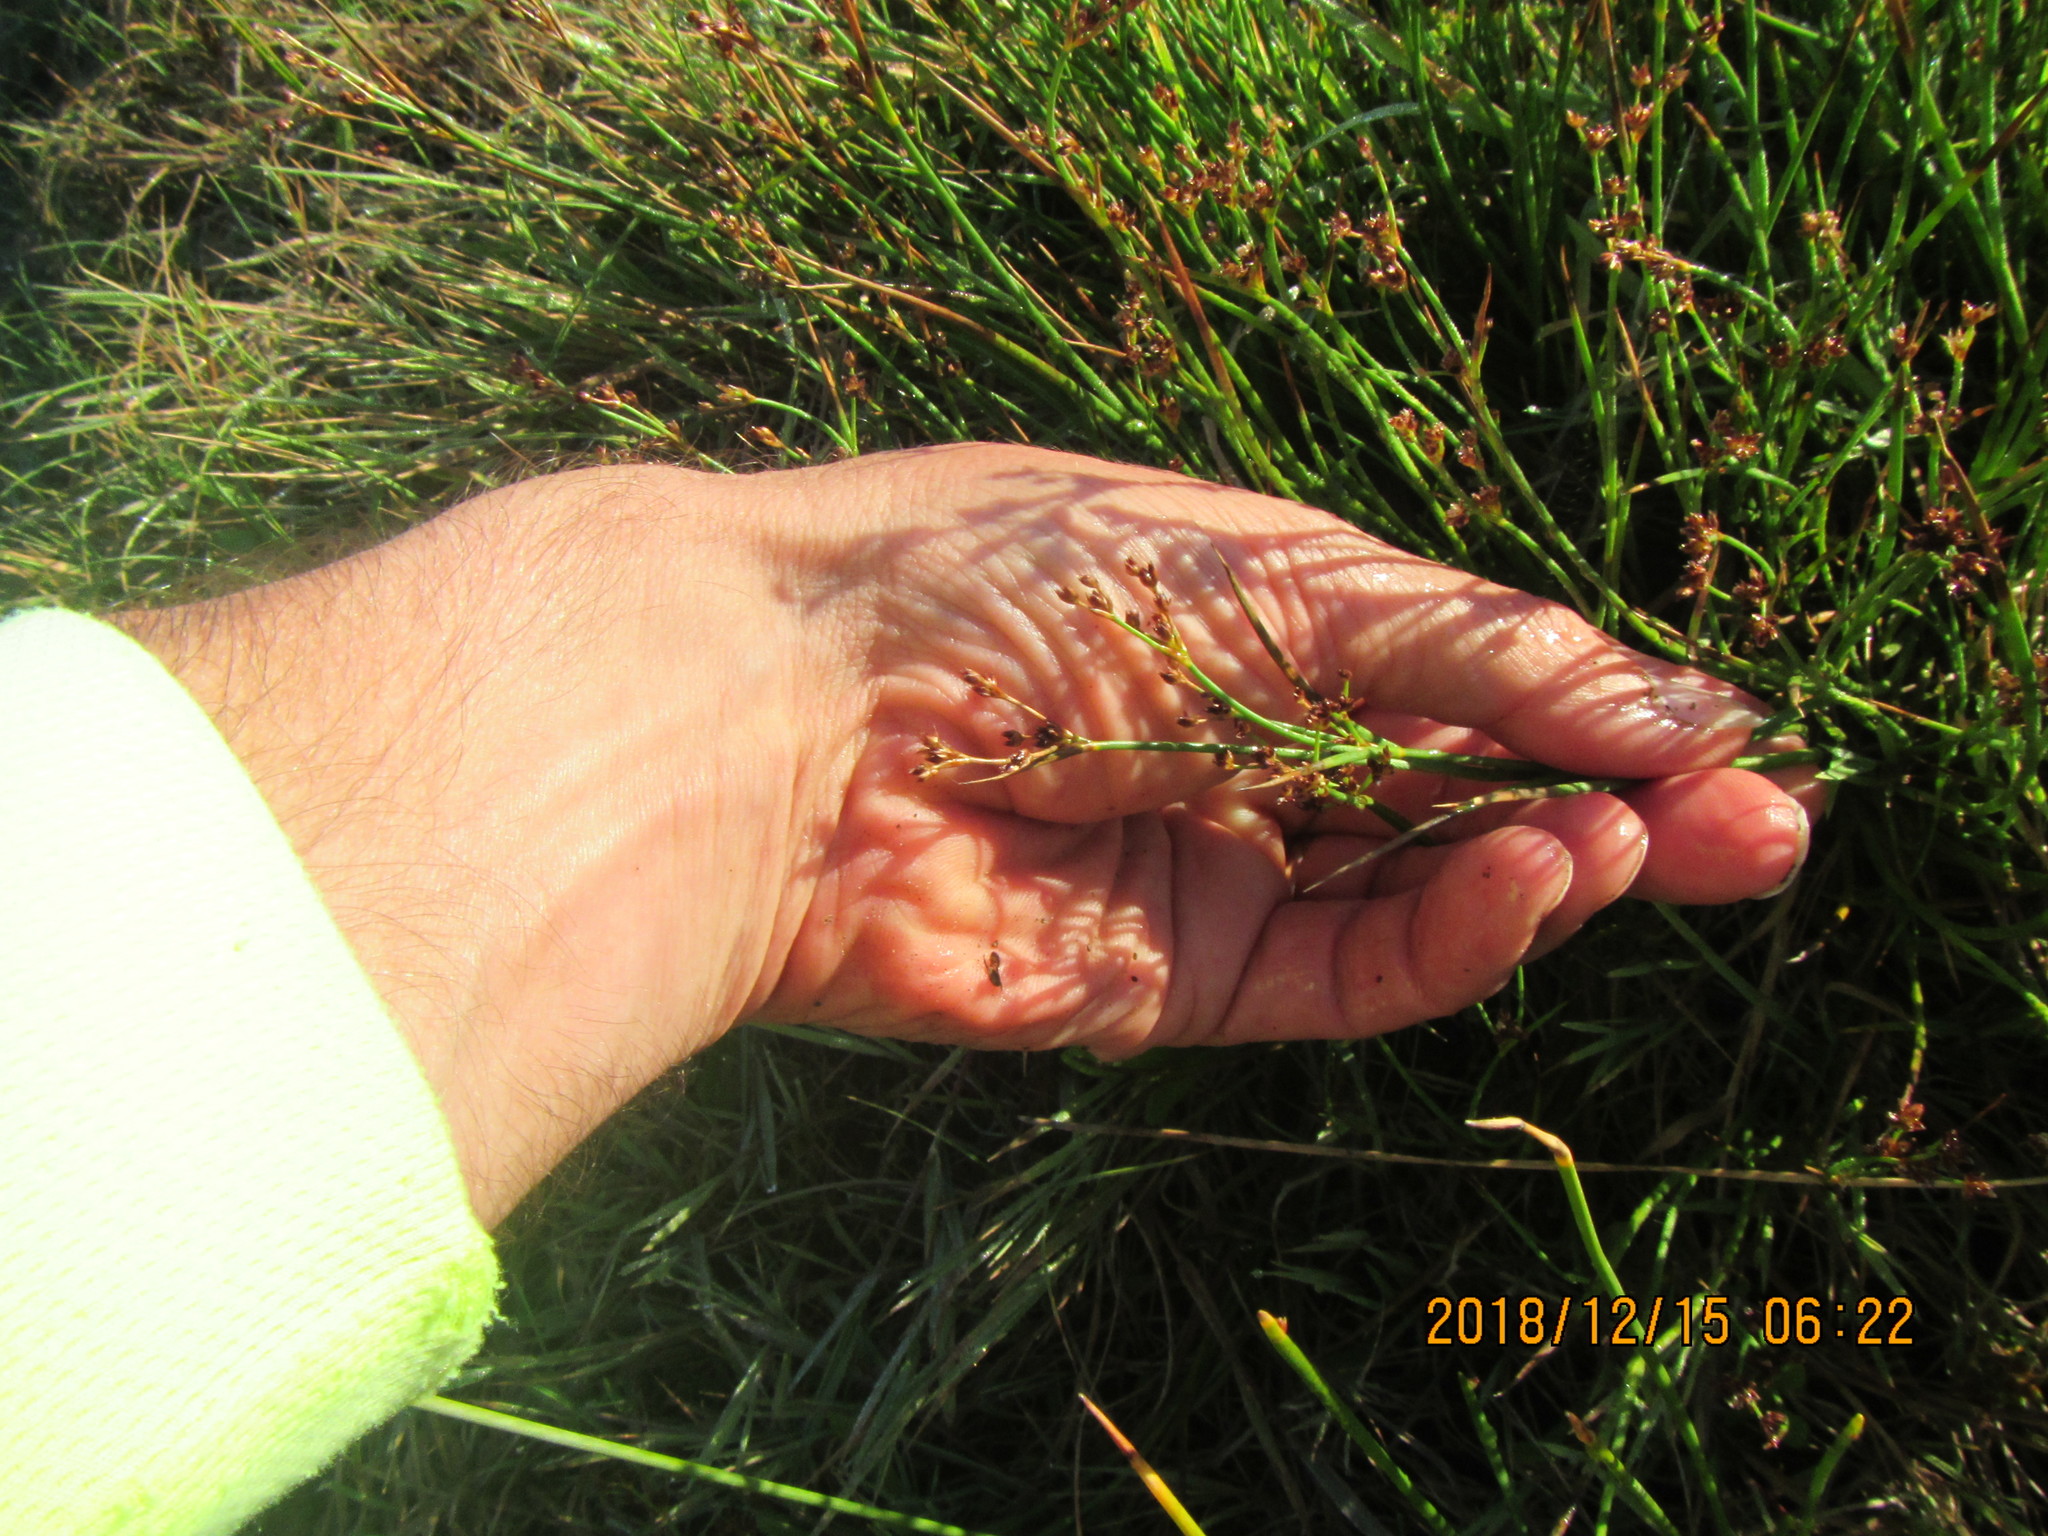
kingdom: Plantae
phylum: Tracheophyta
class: Liliopsida
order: Poales
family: Juncaceae
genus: Juncus
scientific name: Juncus articulatus
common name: Jointed rush
